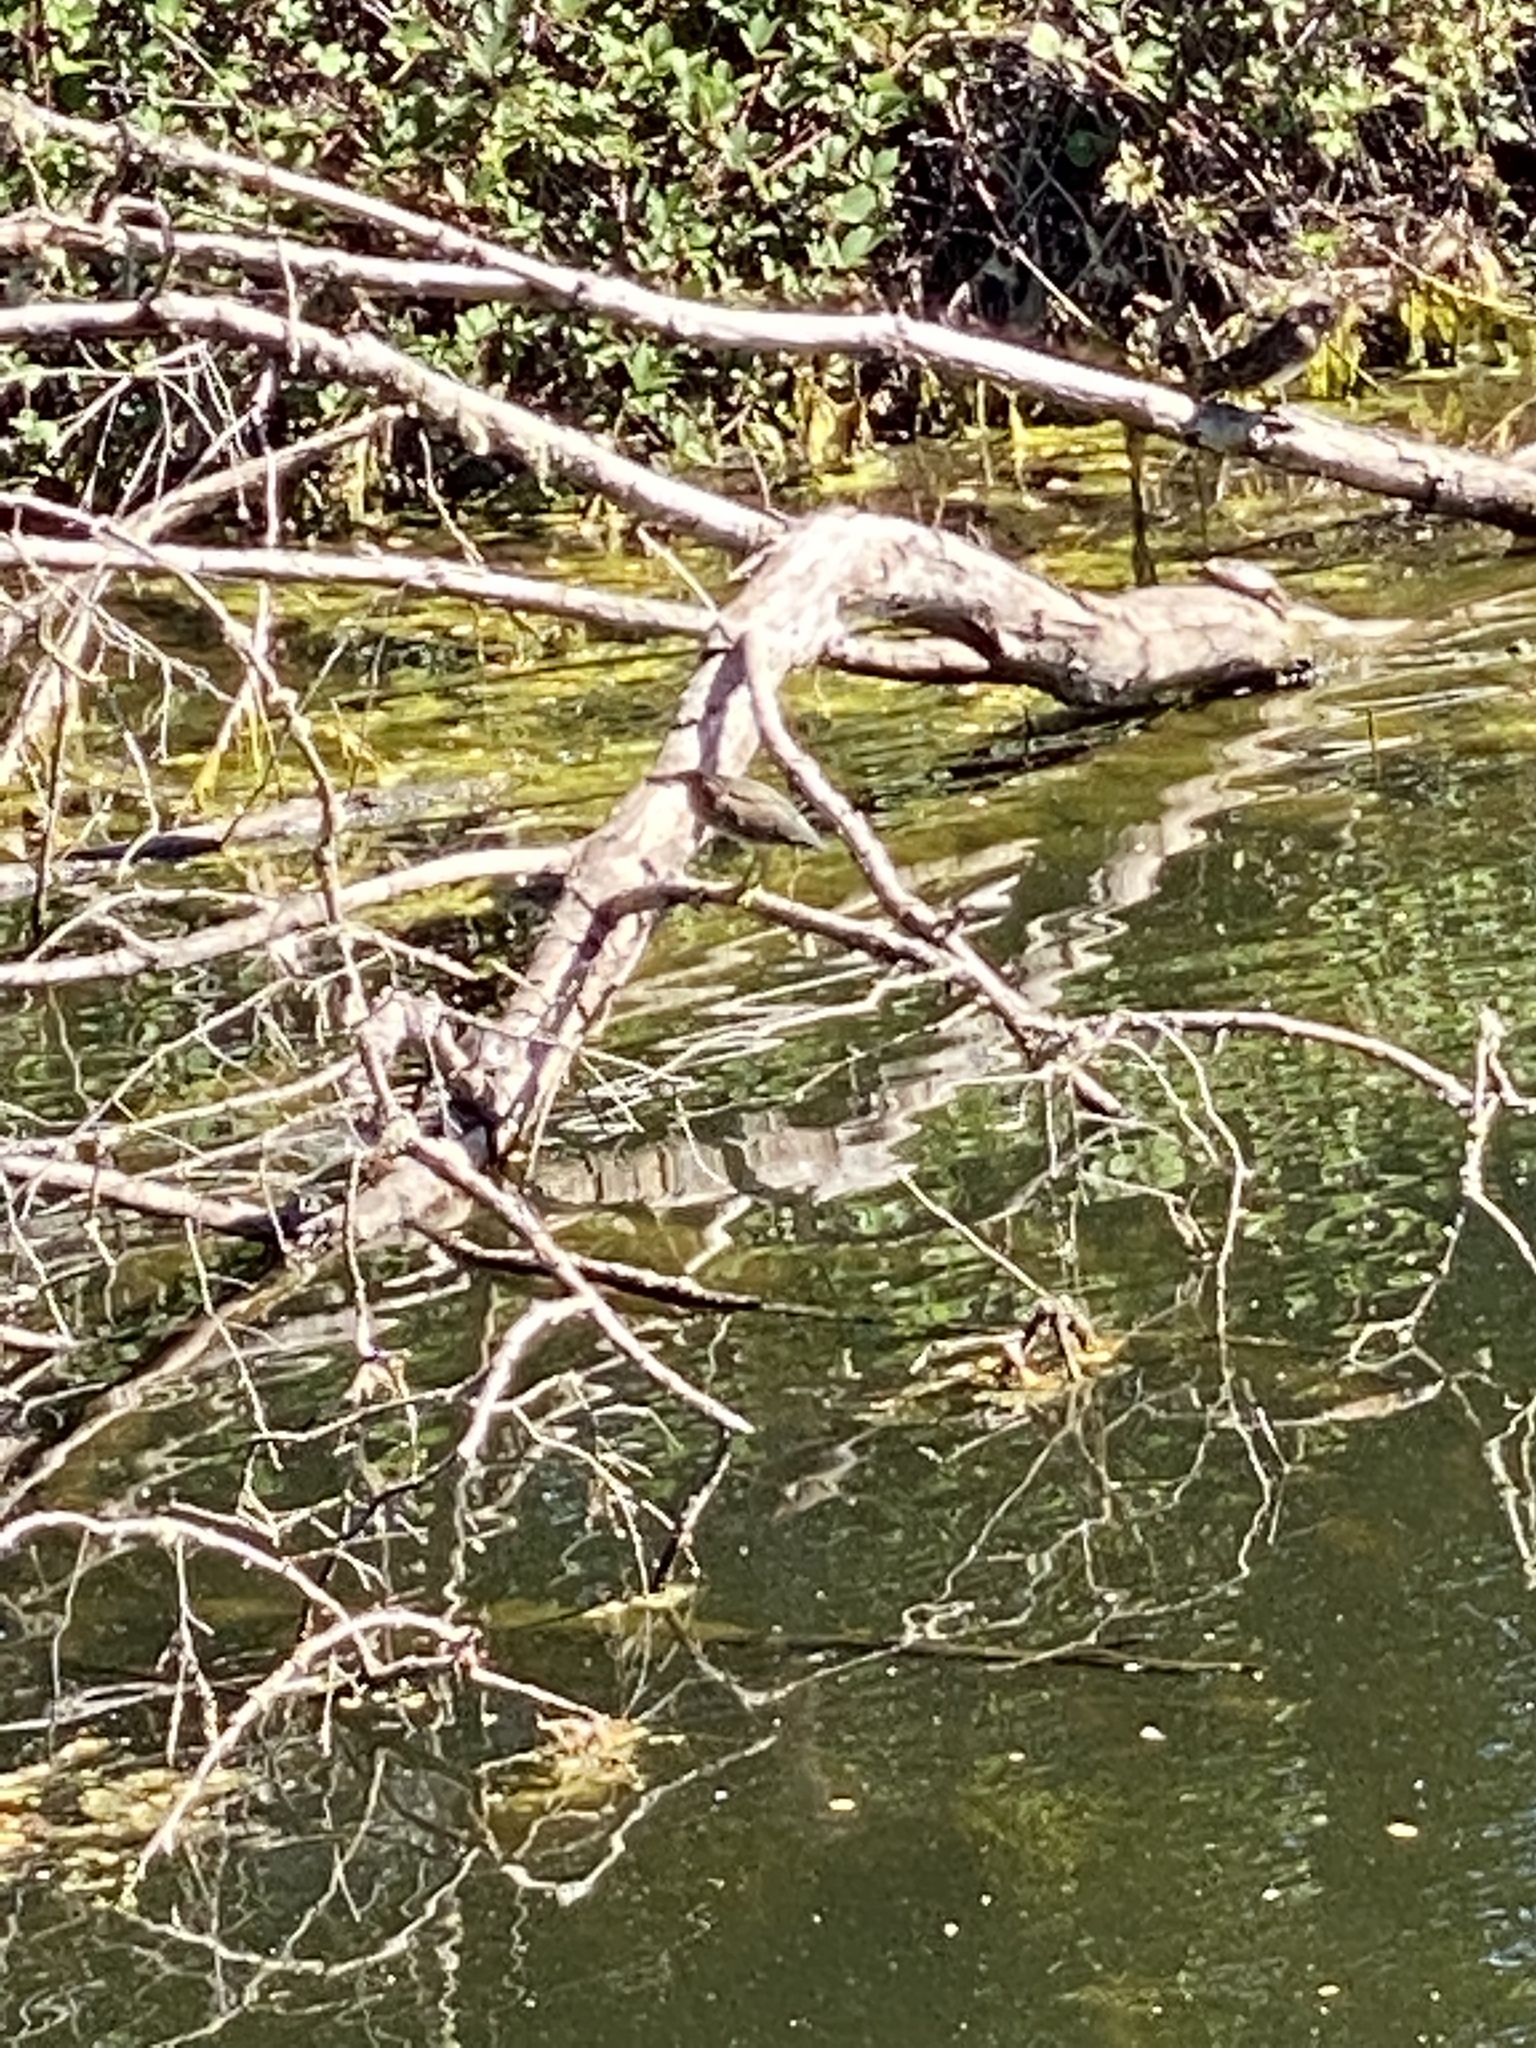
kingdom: Animalia
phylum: Chordata
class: Aves
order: Pelecaniformes
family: Ardeidae
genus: Butorides
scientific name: Butorides virescens
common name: Green heron
